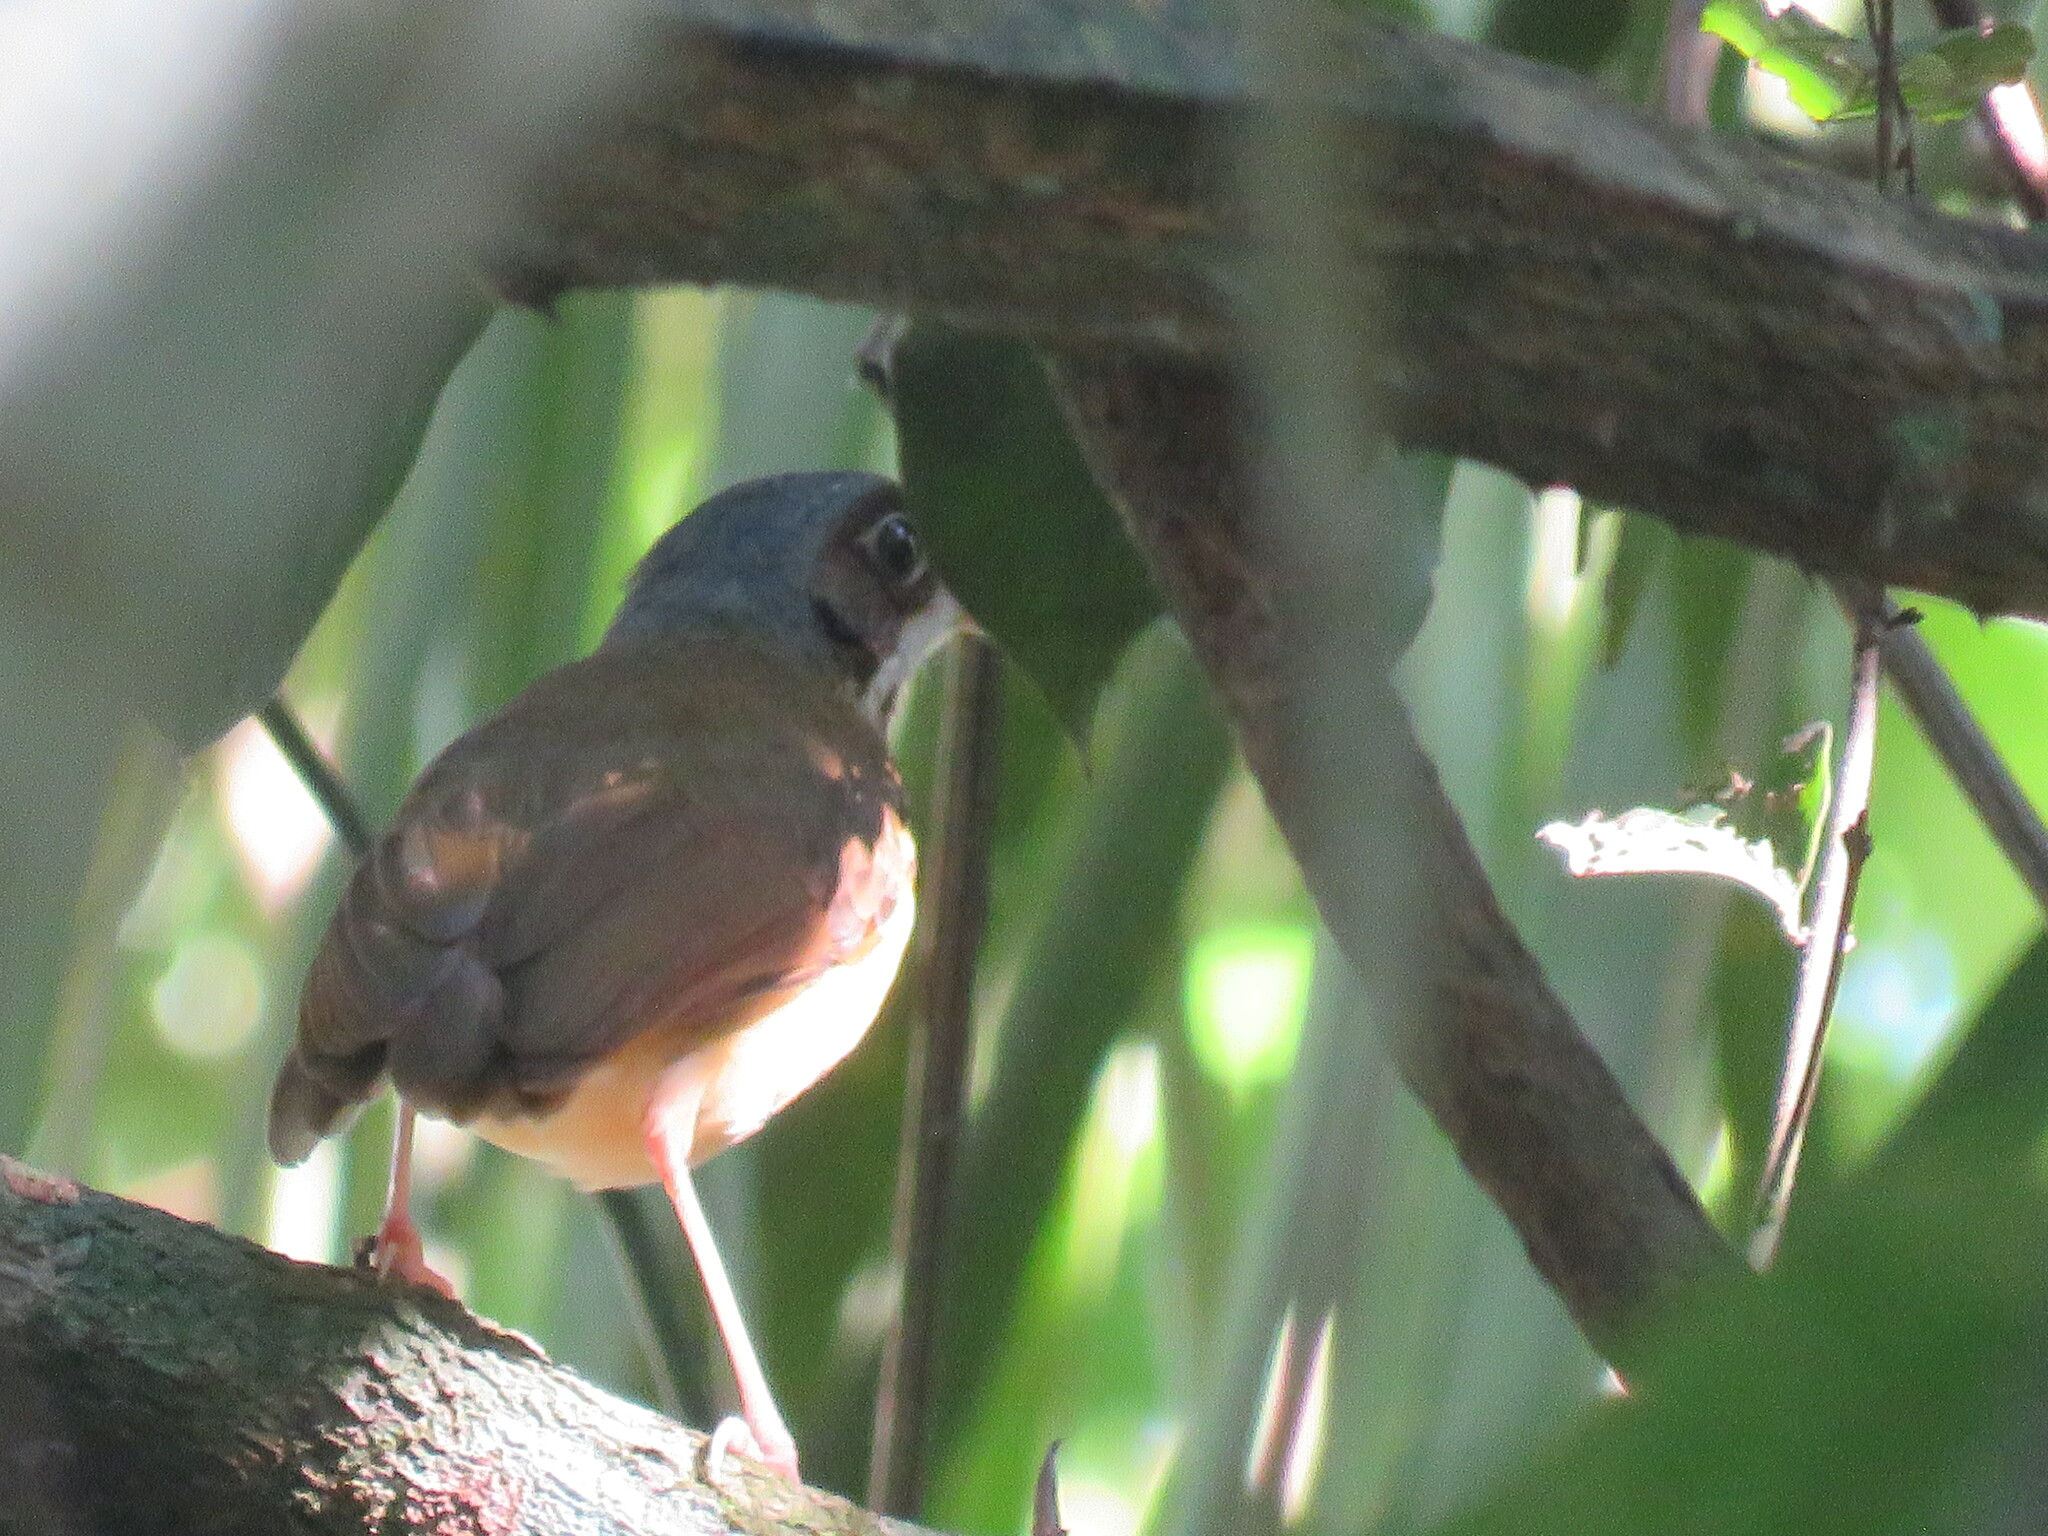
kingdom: Animalia
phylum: Chordata
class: Aves
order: Passeriformes
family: Grallariidae
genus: Hylopezus
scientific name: Hylopezus auricularis
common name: Masked antpitta
